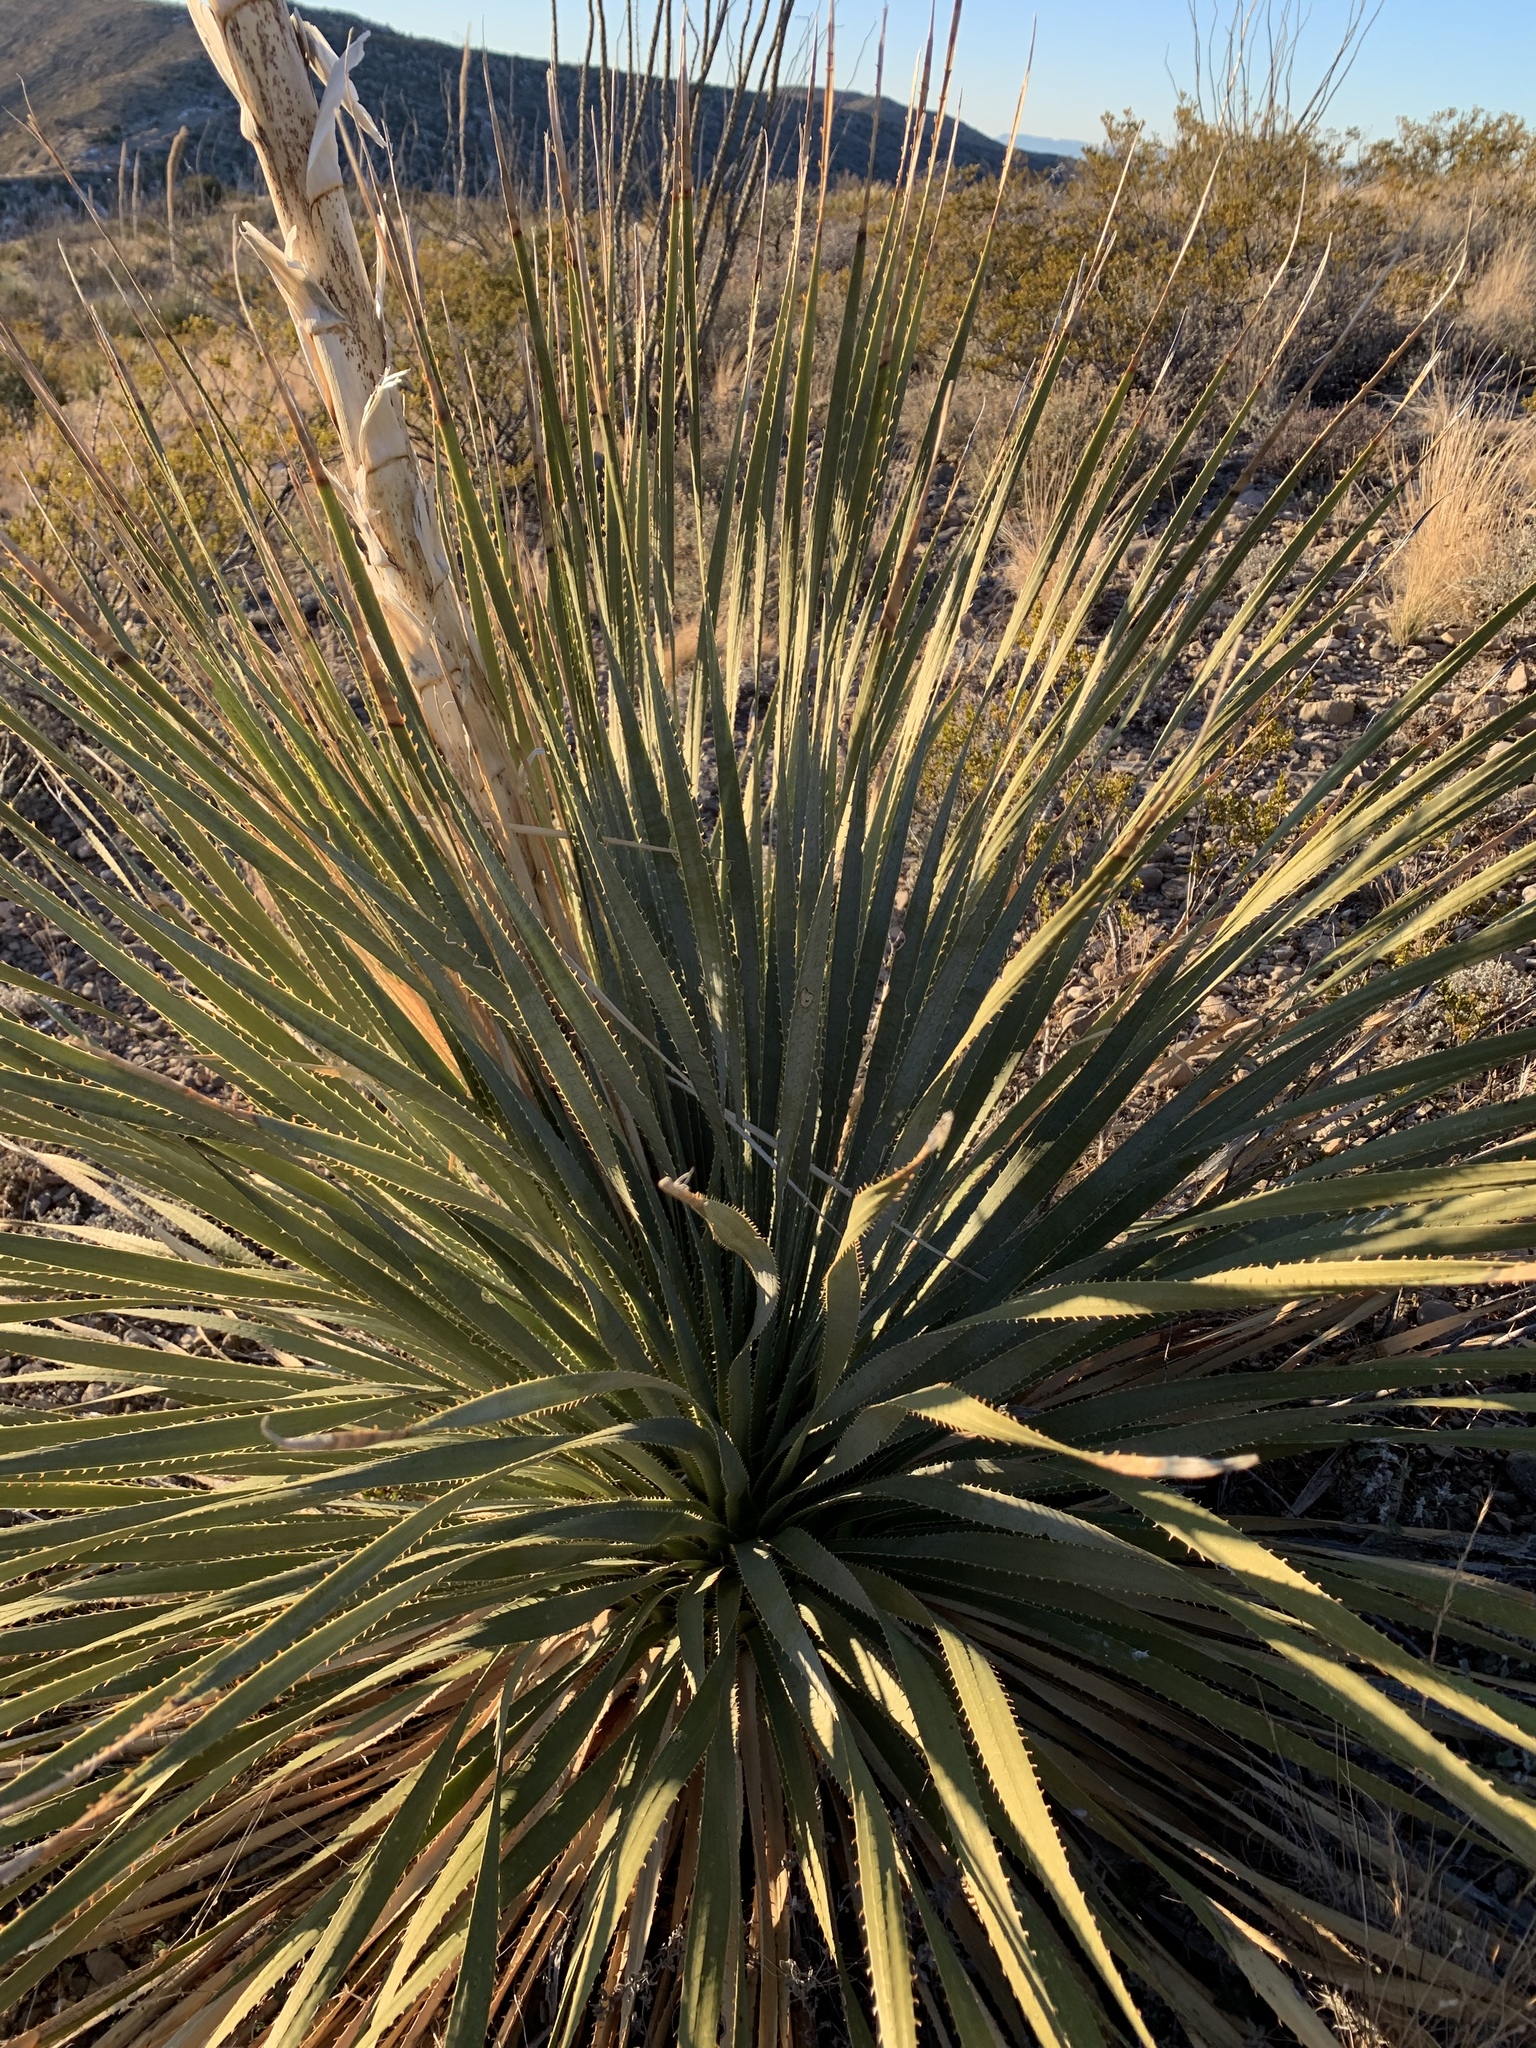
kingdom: Plantae
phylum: Tracheophyta
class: Liliopsida
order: Asparagales
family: Asparagaceae
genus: Dasylirion
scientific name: Dasylirion wheeleri
